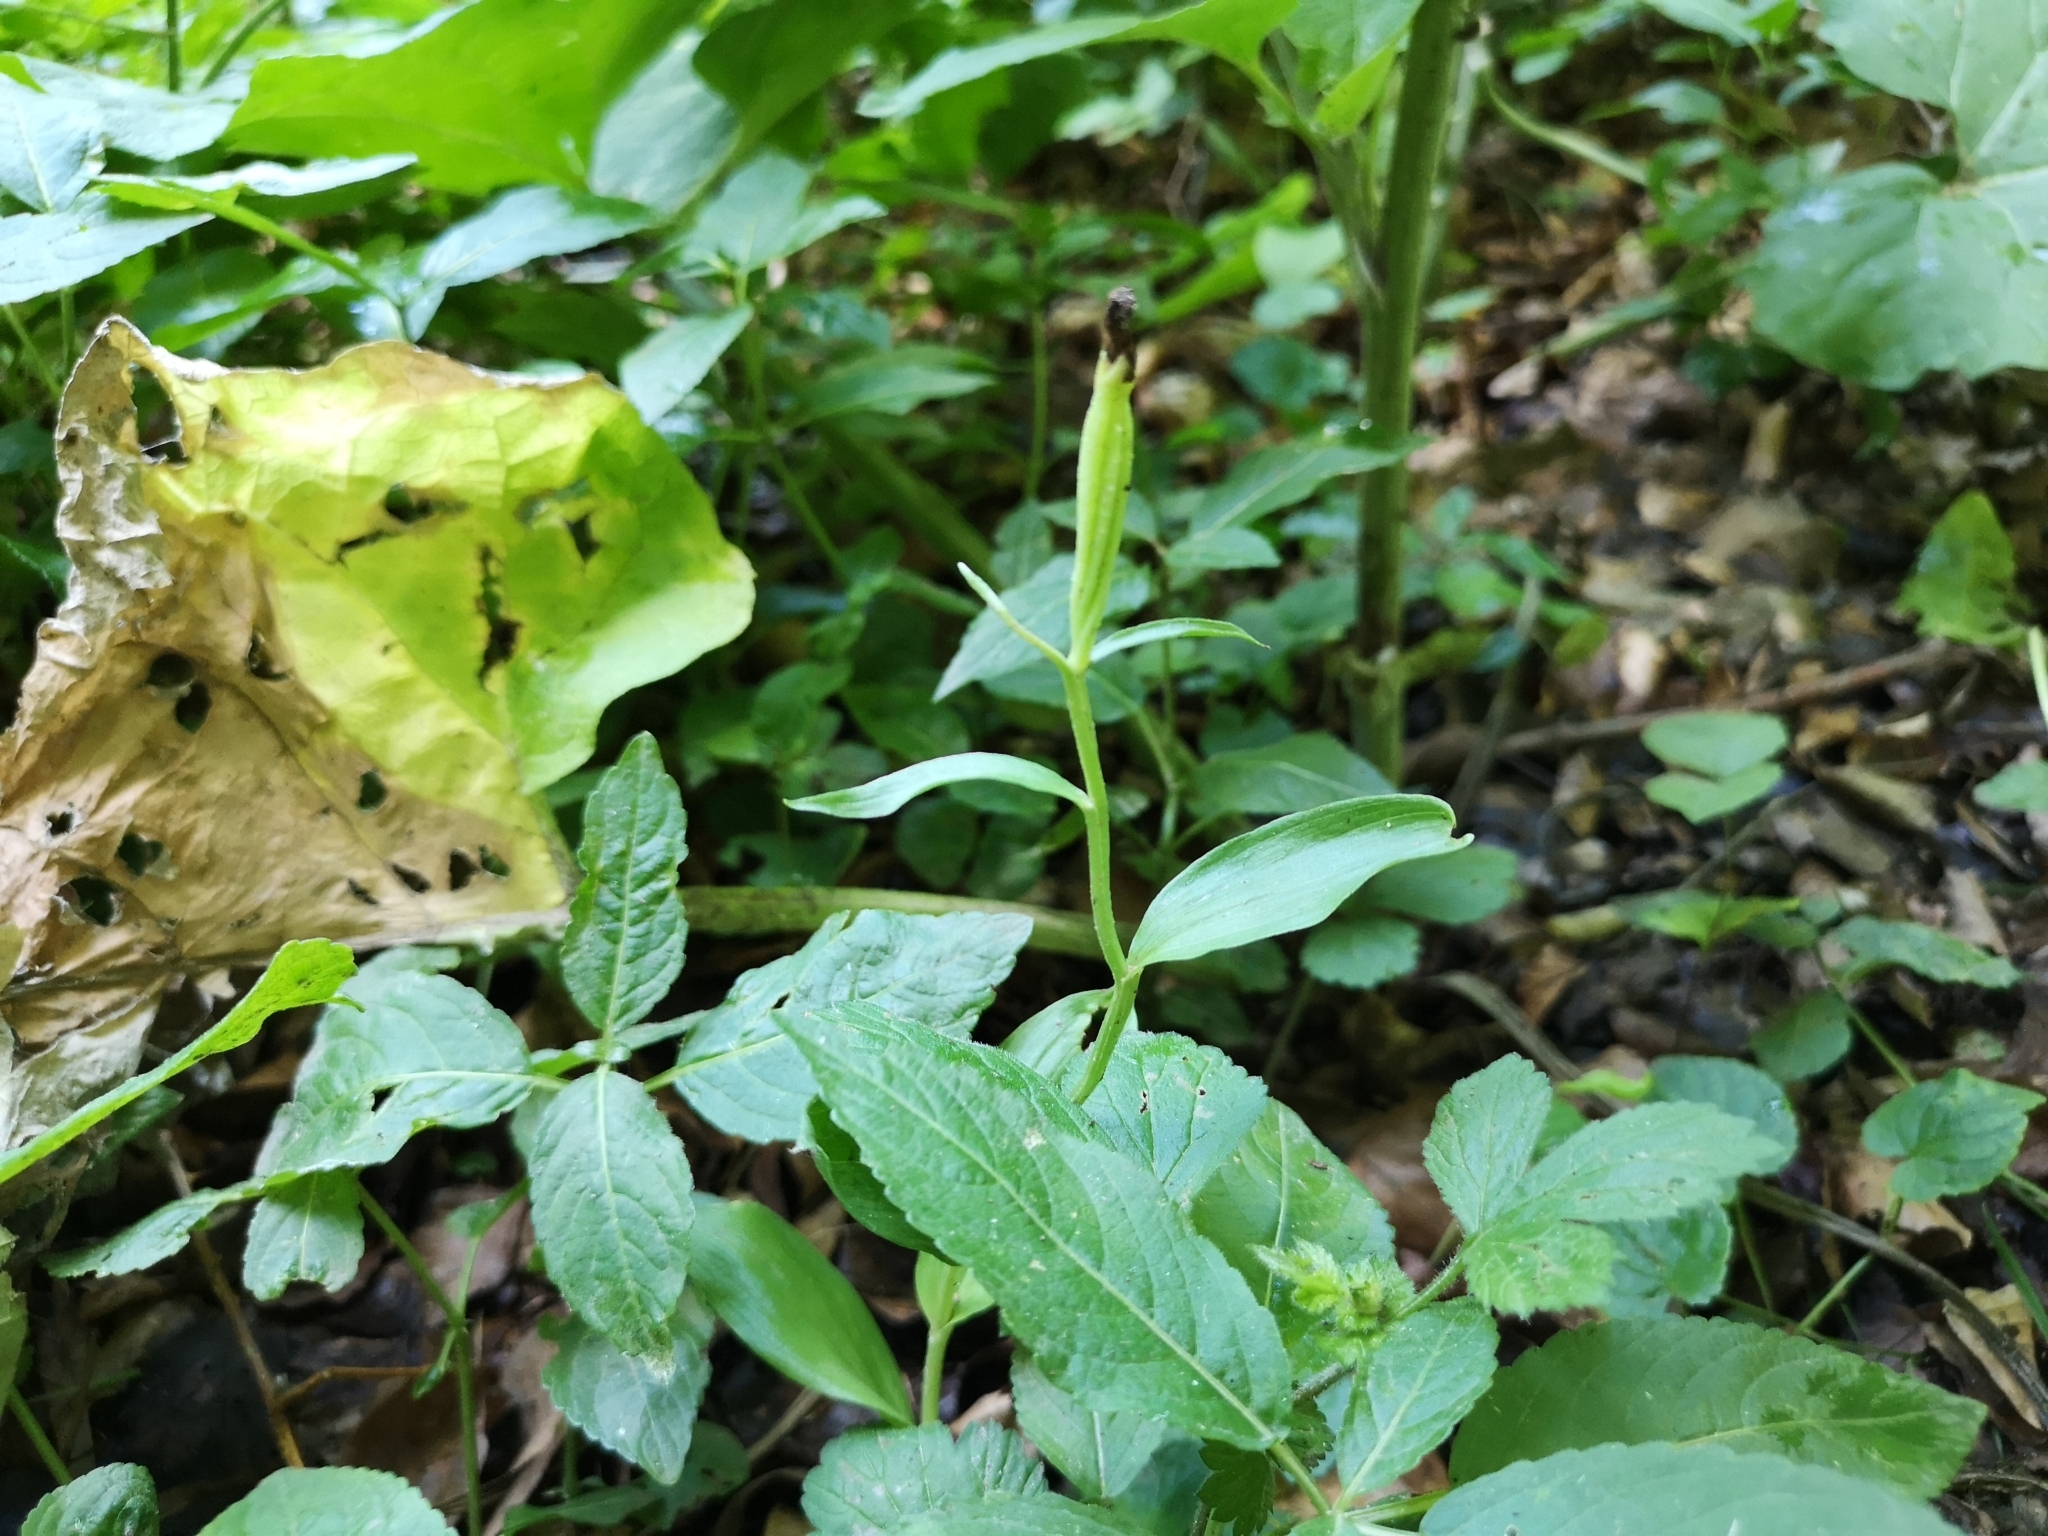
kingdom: Plantae
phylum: Tracheophyta
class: Liliopsida
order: Asparagales
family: Orchidaceae
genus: Cephalanthera
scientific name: Cephalanthera damasonium
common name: White helleborine
